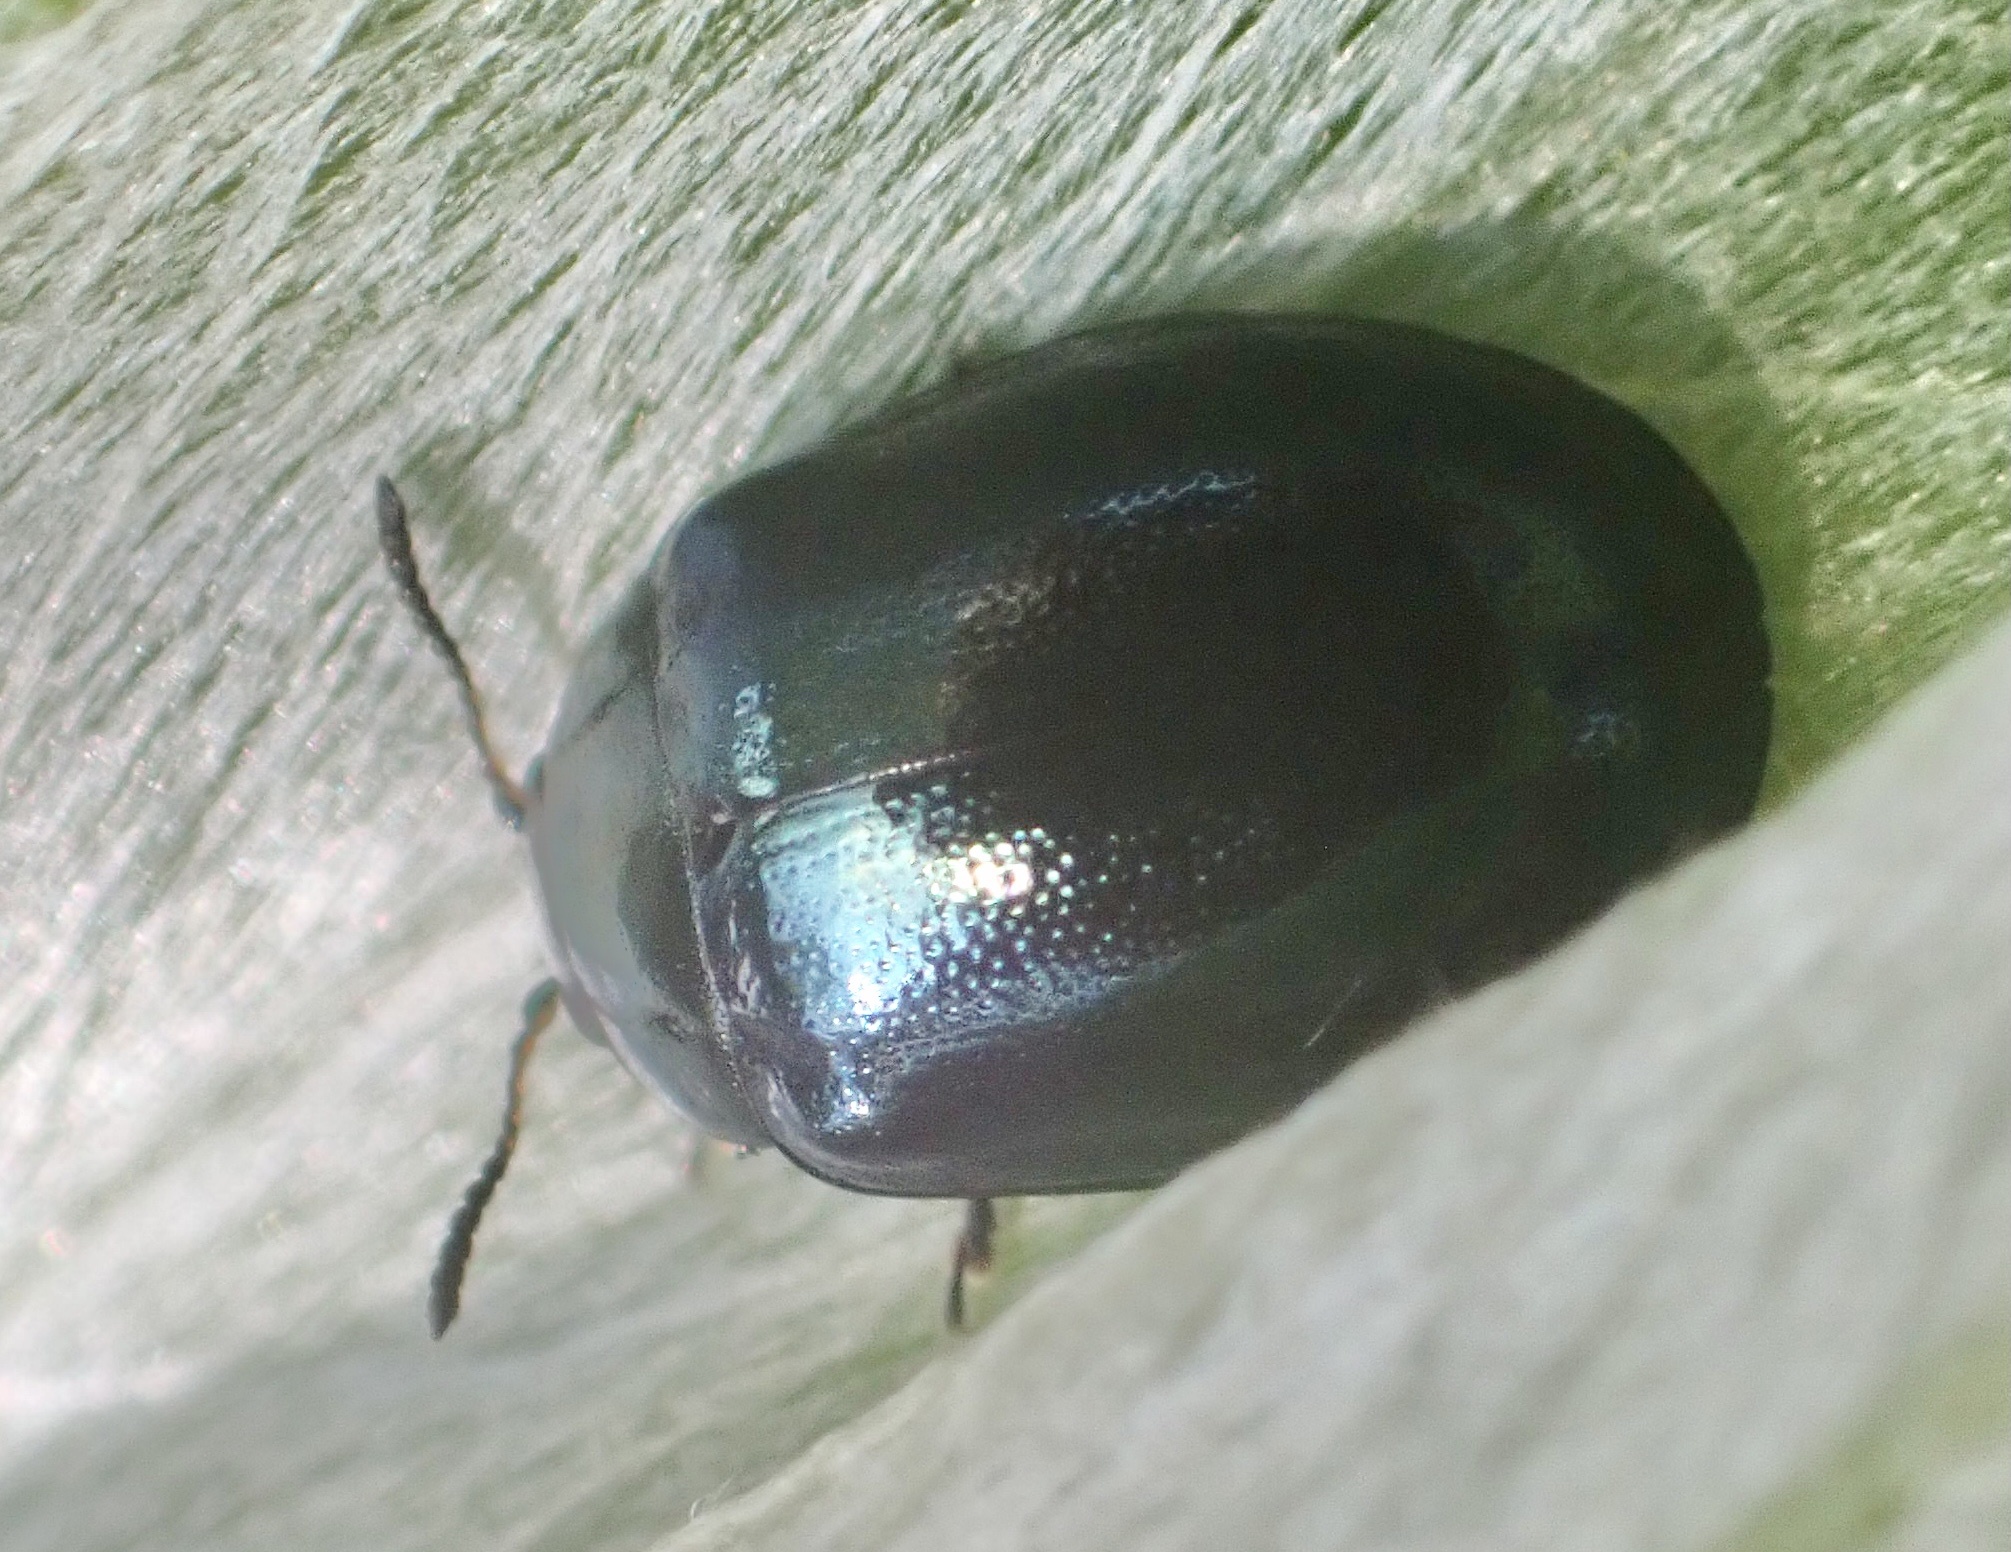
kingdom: Animalia
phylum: Arthropoda
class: Insecta
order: Coleoptera
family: Chrysomelidae
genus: Plagiodera
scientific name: Plagiodera versicolora
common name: Imported willow leaf beetle
